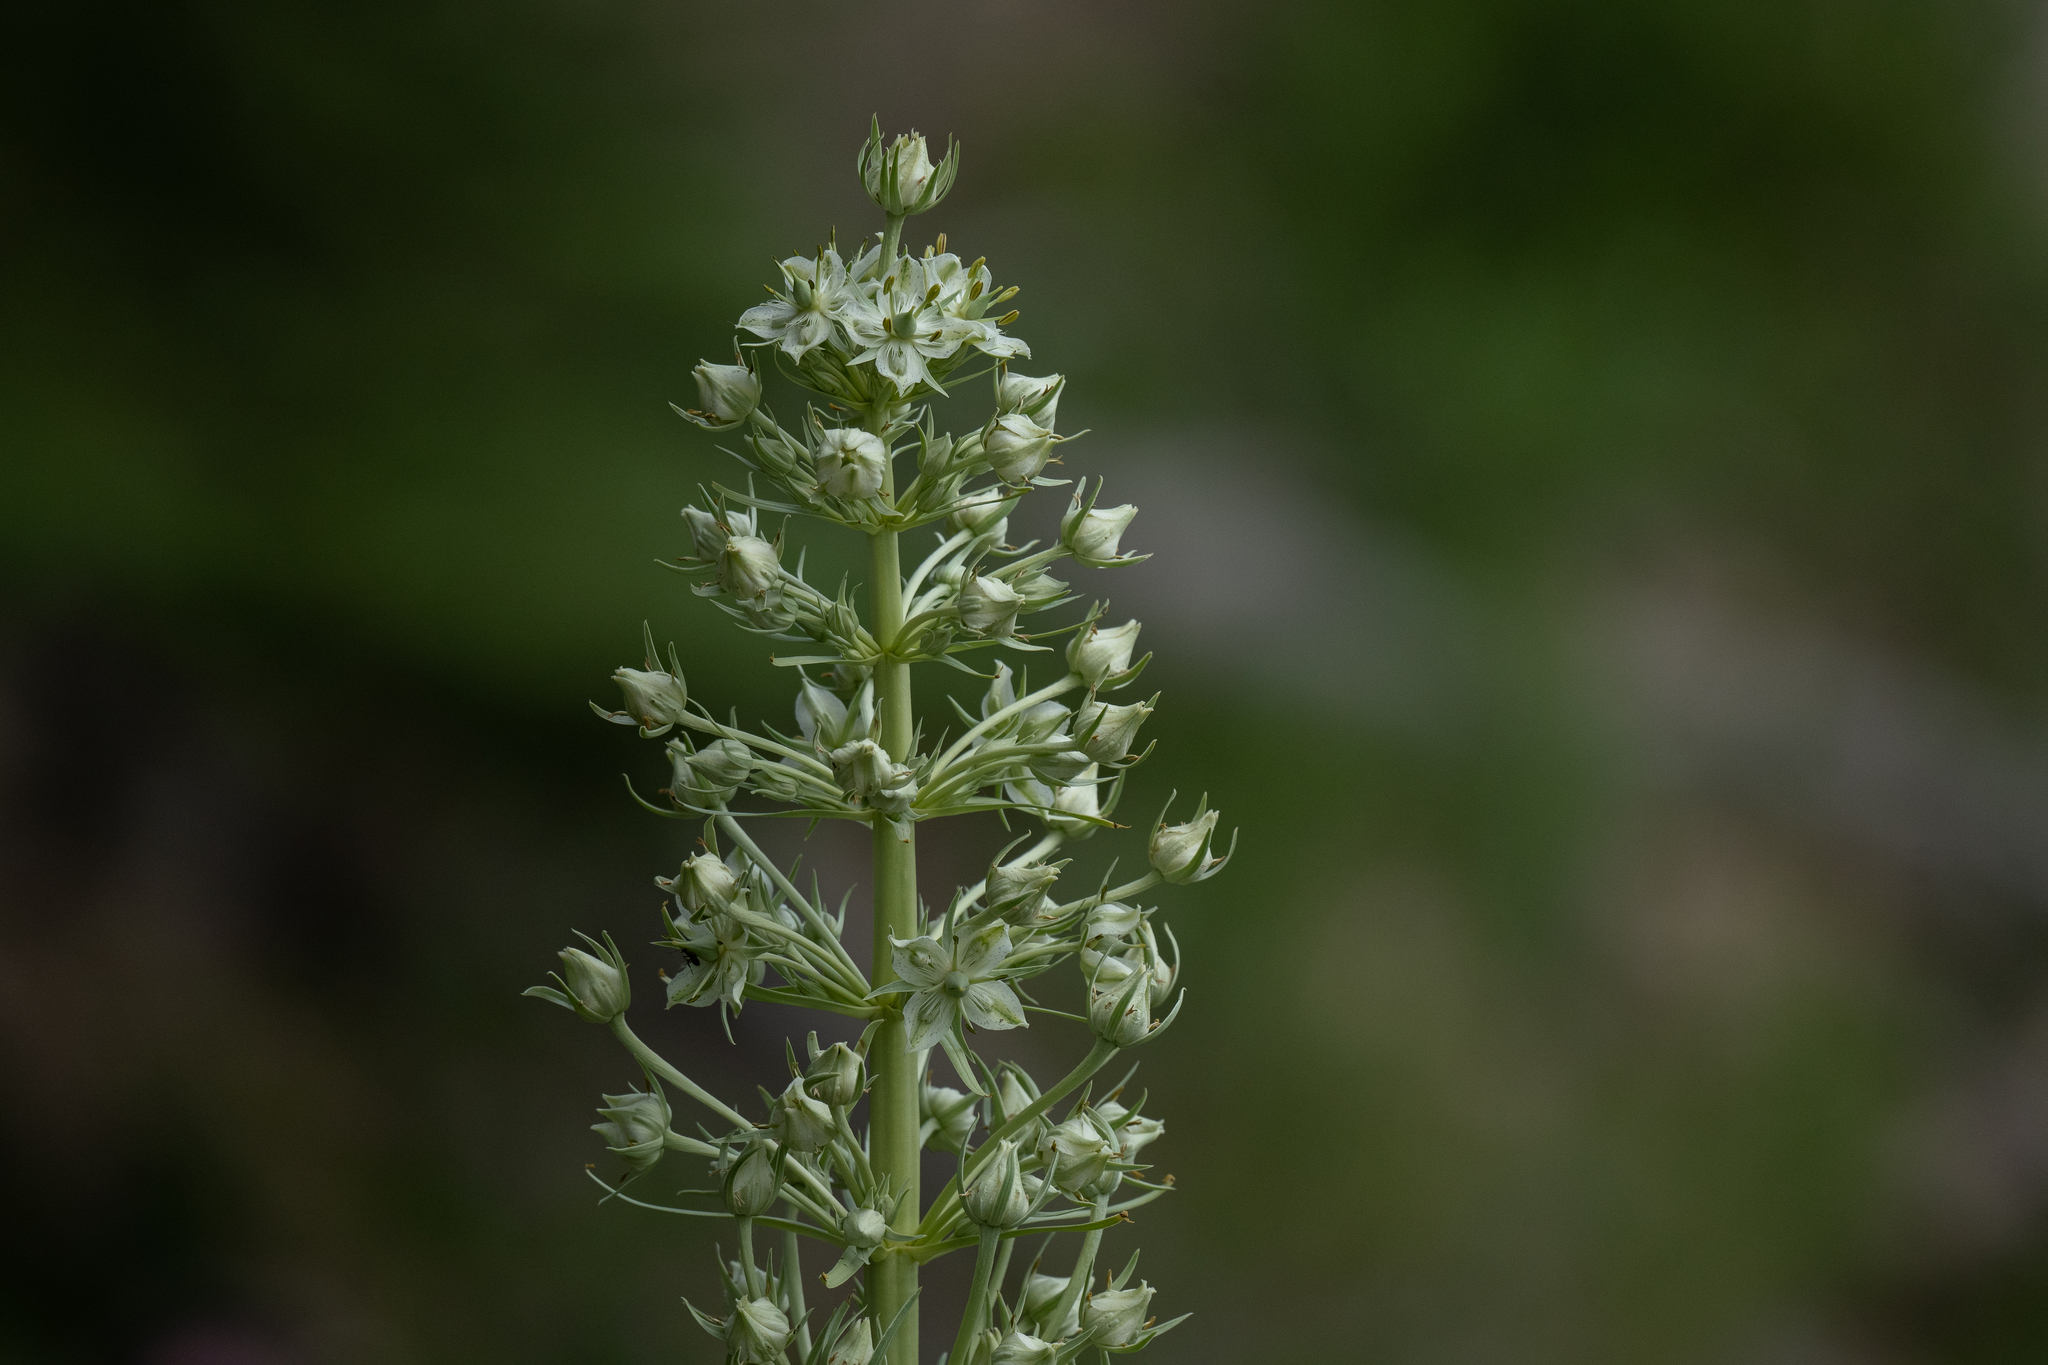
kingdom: Plantae
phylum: Tracheophyta
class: Magnoliopsida
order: Gentianales
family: Gentianaceae
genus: Frasera
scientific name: Frasera speciosa
